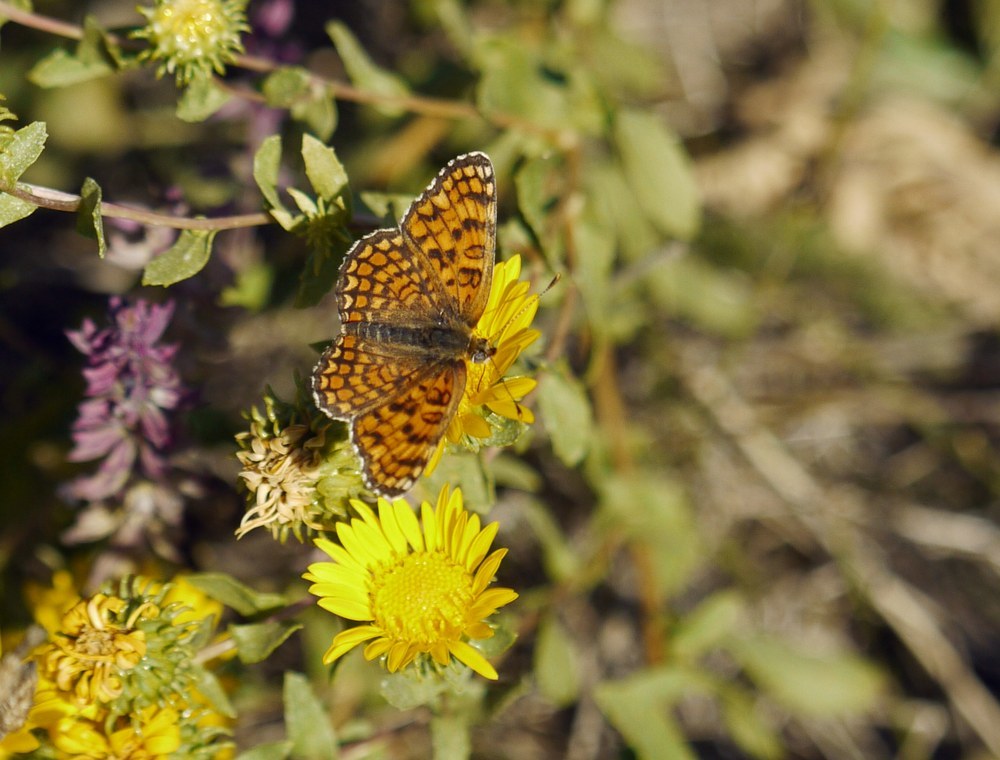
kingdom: Animalia
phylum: Arthropoda
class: Insecta
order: Lepidoptera
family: Nymphalidae
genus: Melitaea
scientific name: Melitaea phoebe
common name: Knapweed fritillary
